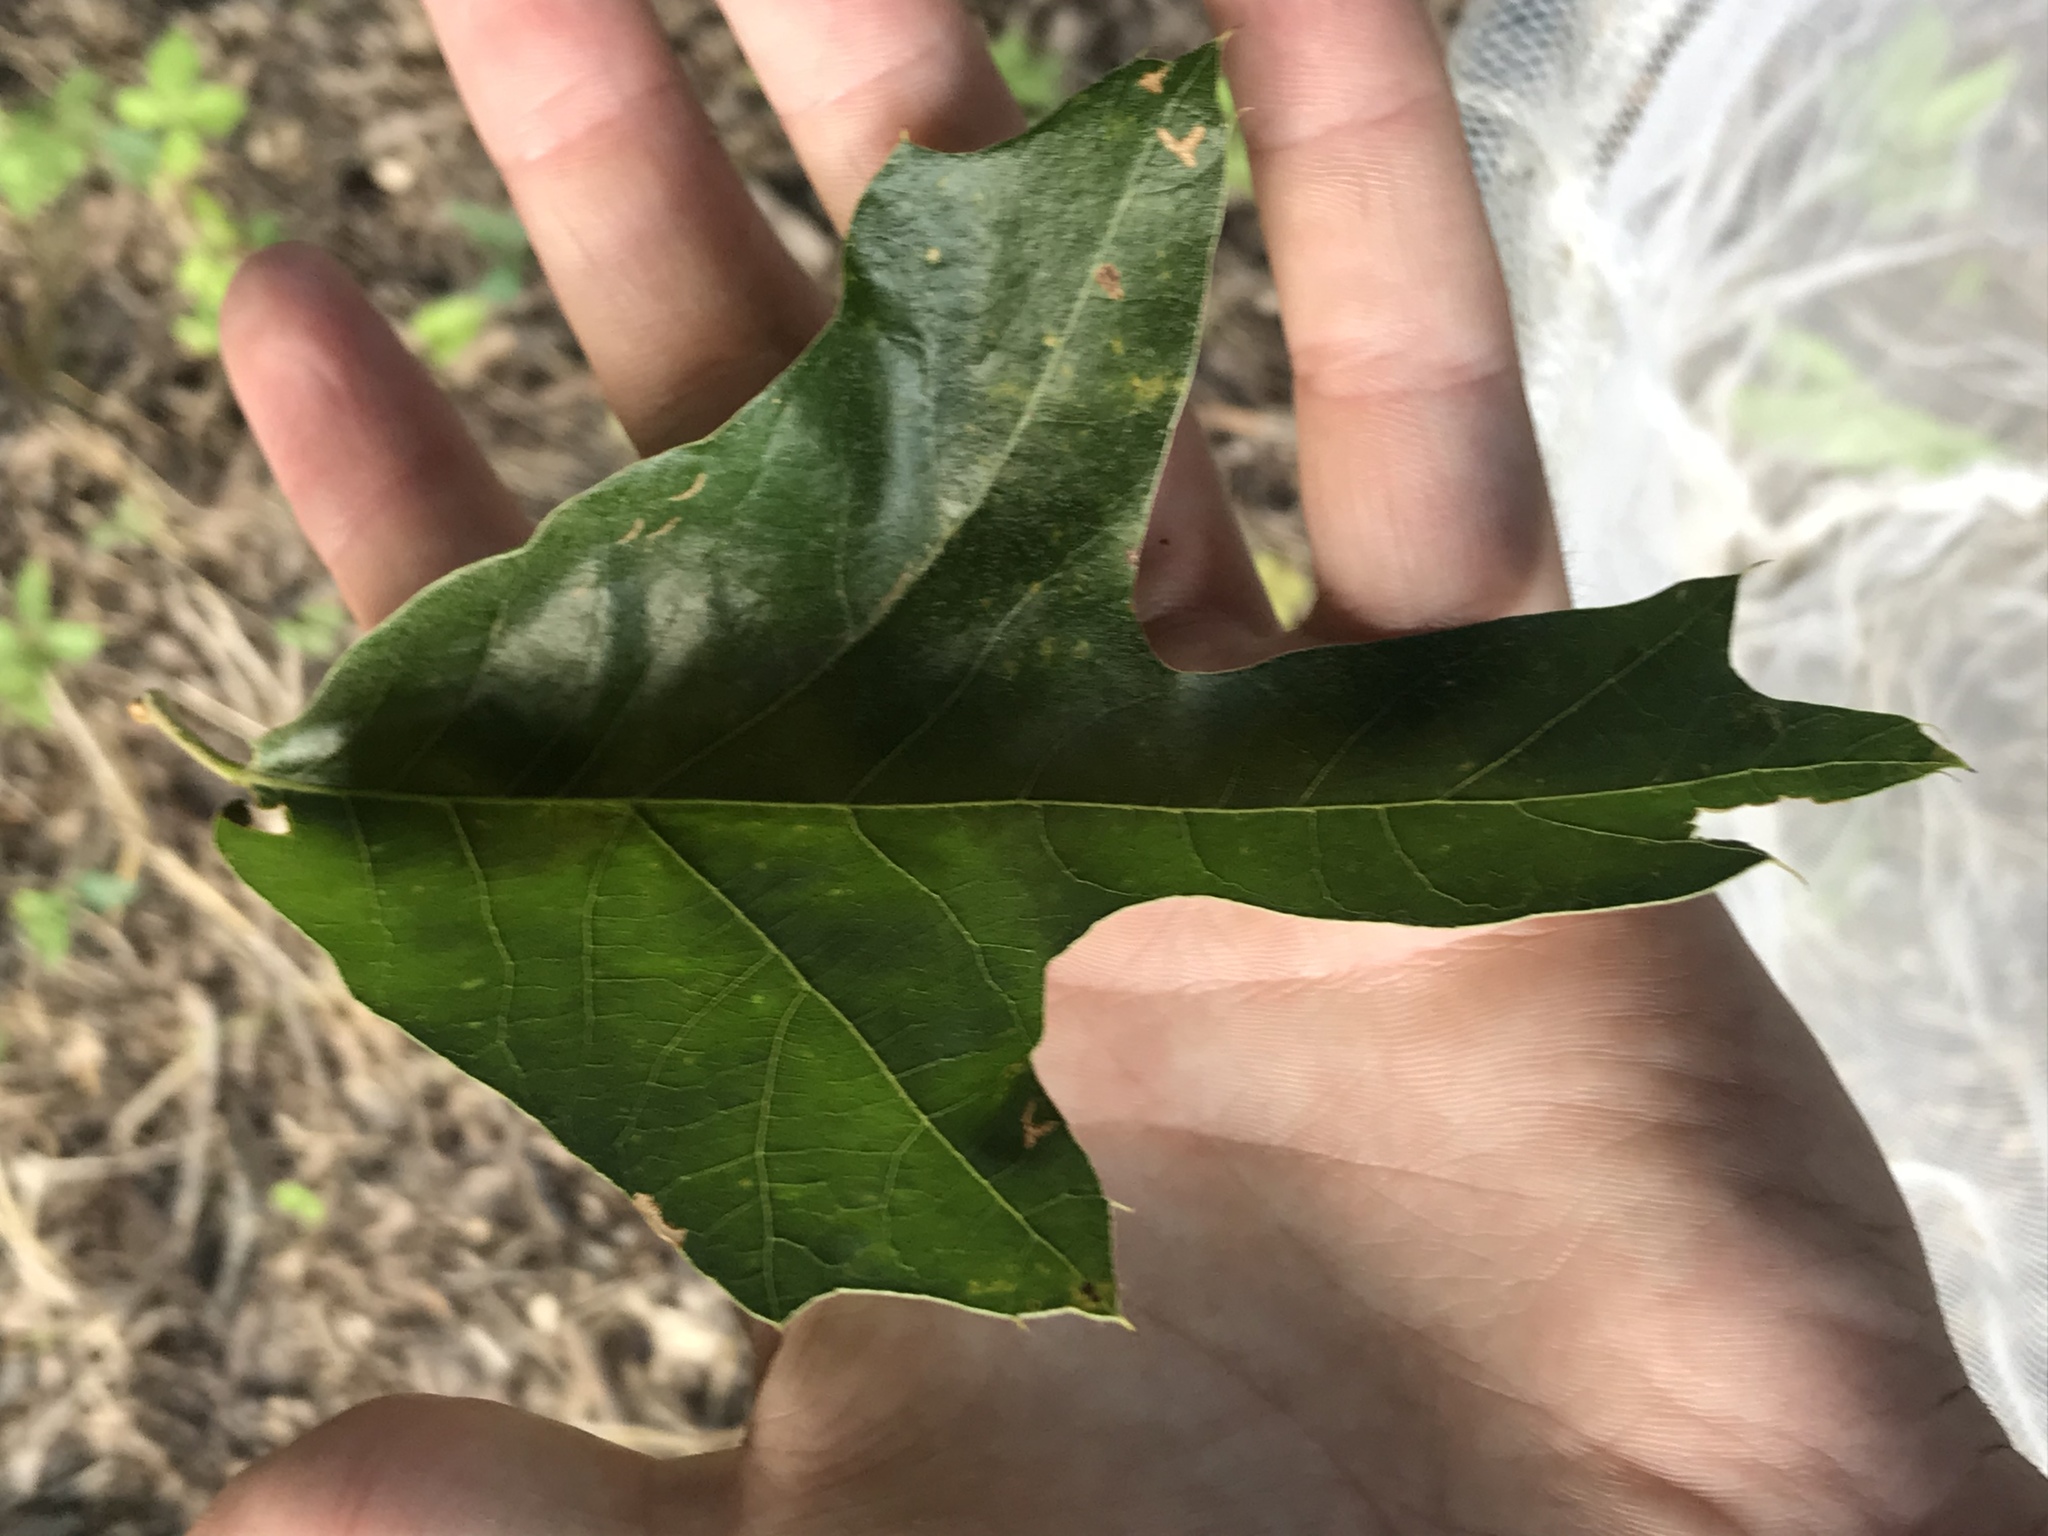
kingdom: Plantae
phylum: Tracheophyta
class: Magnoliopsida
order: Fagales
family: Fagaceae
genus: Quercus
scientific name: Quercus falcata
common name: Southern red oak
